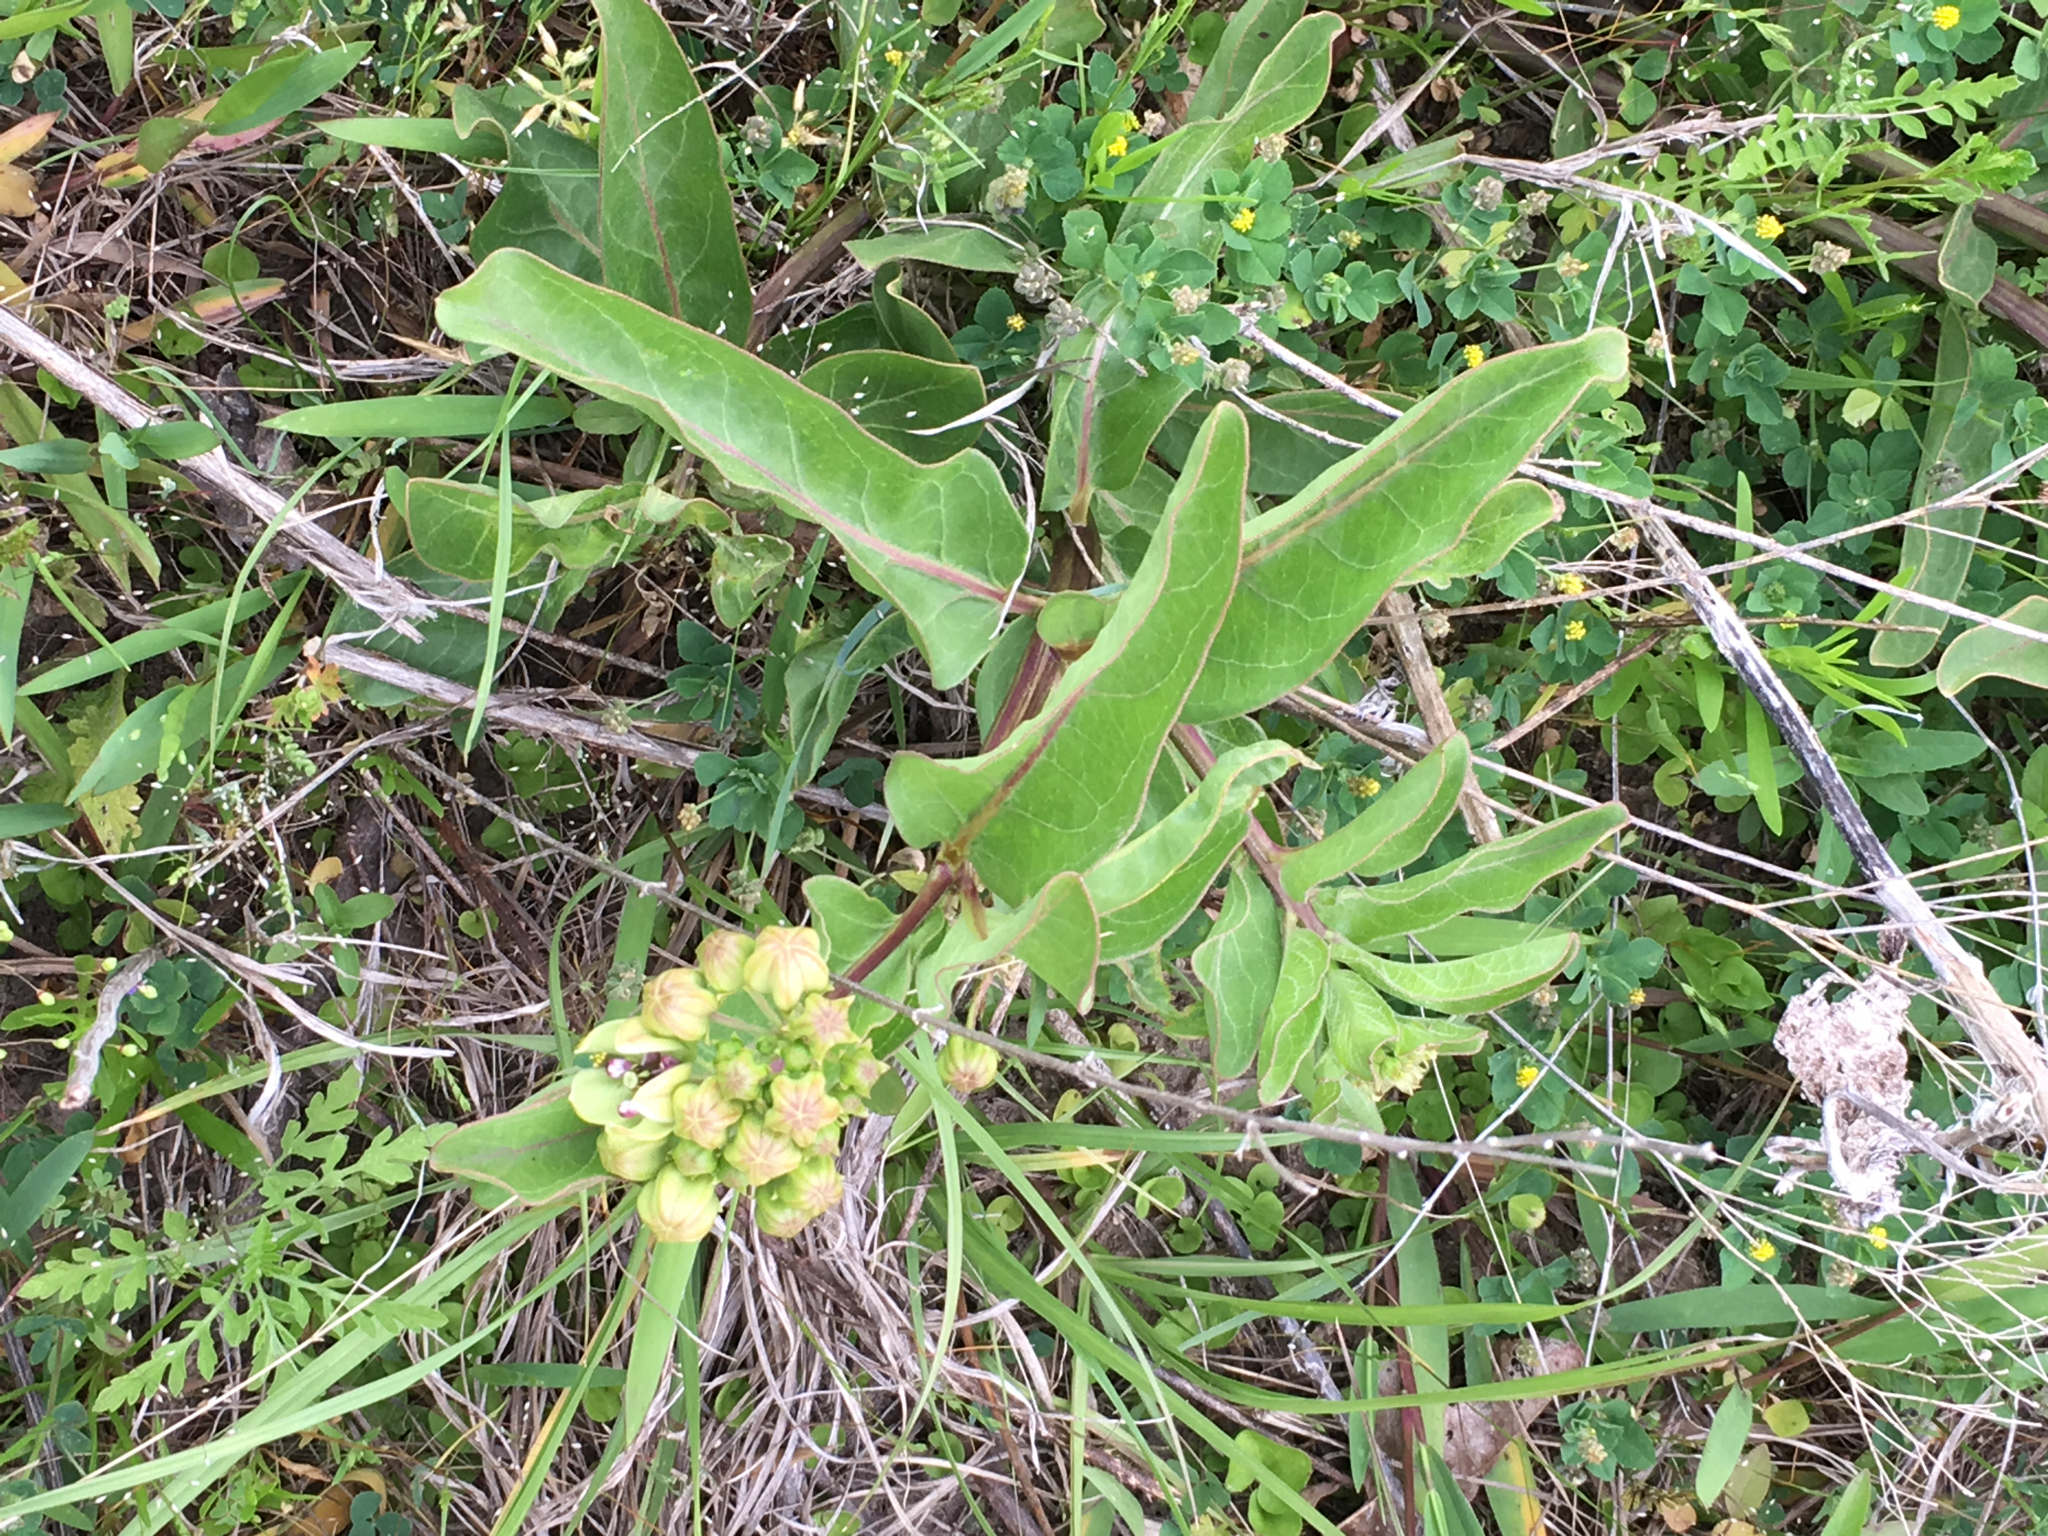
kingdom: Plantae
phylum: Tracheophyta
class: Magnoliopsida
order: Gentianales
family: Apocynaceae
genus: Asclepias
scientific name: Asclepias viridis
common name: Antelope-horns
